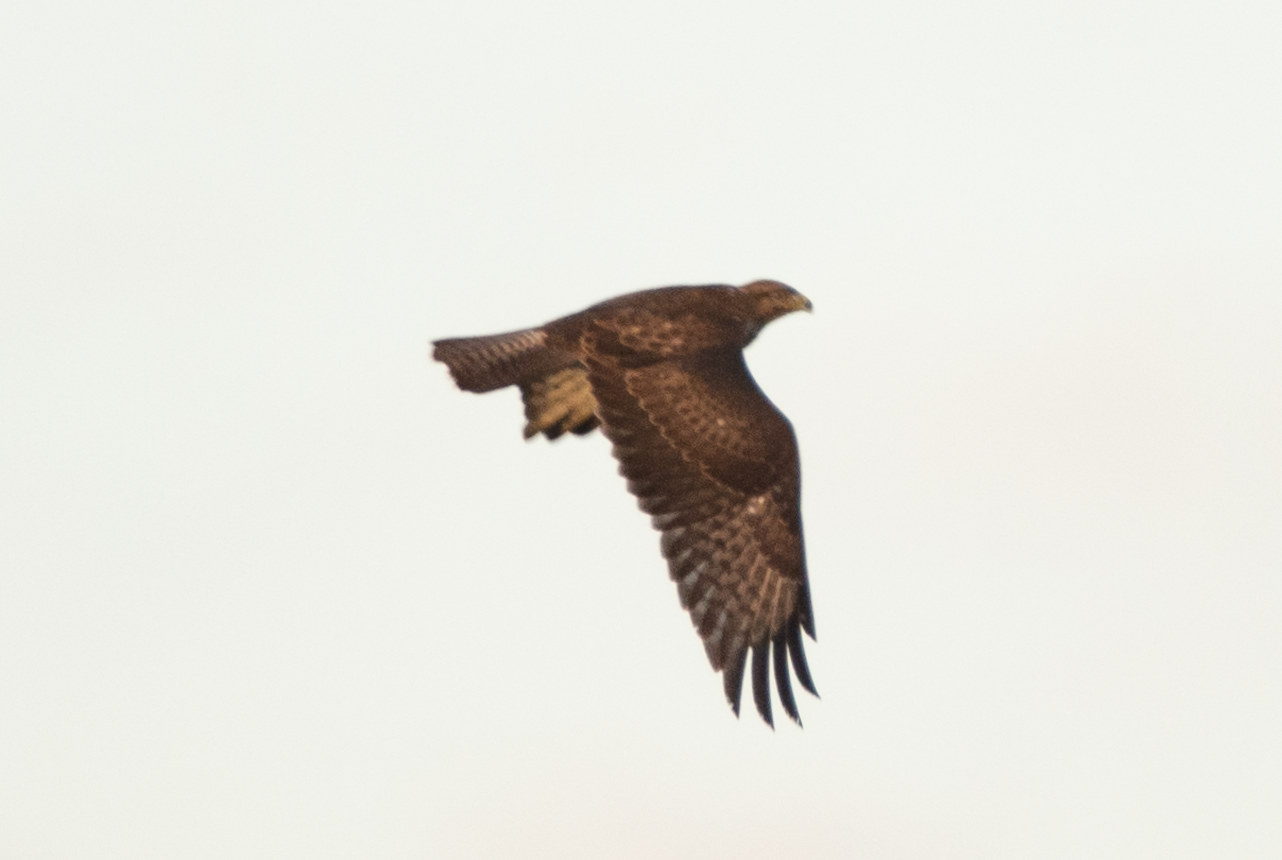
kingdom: Animalia
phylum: Chordata
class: Aves
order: Accipitriformes
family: Accipitridae
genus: Buteo
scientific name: Buteo buteo
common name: Common buzzard
